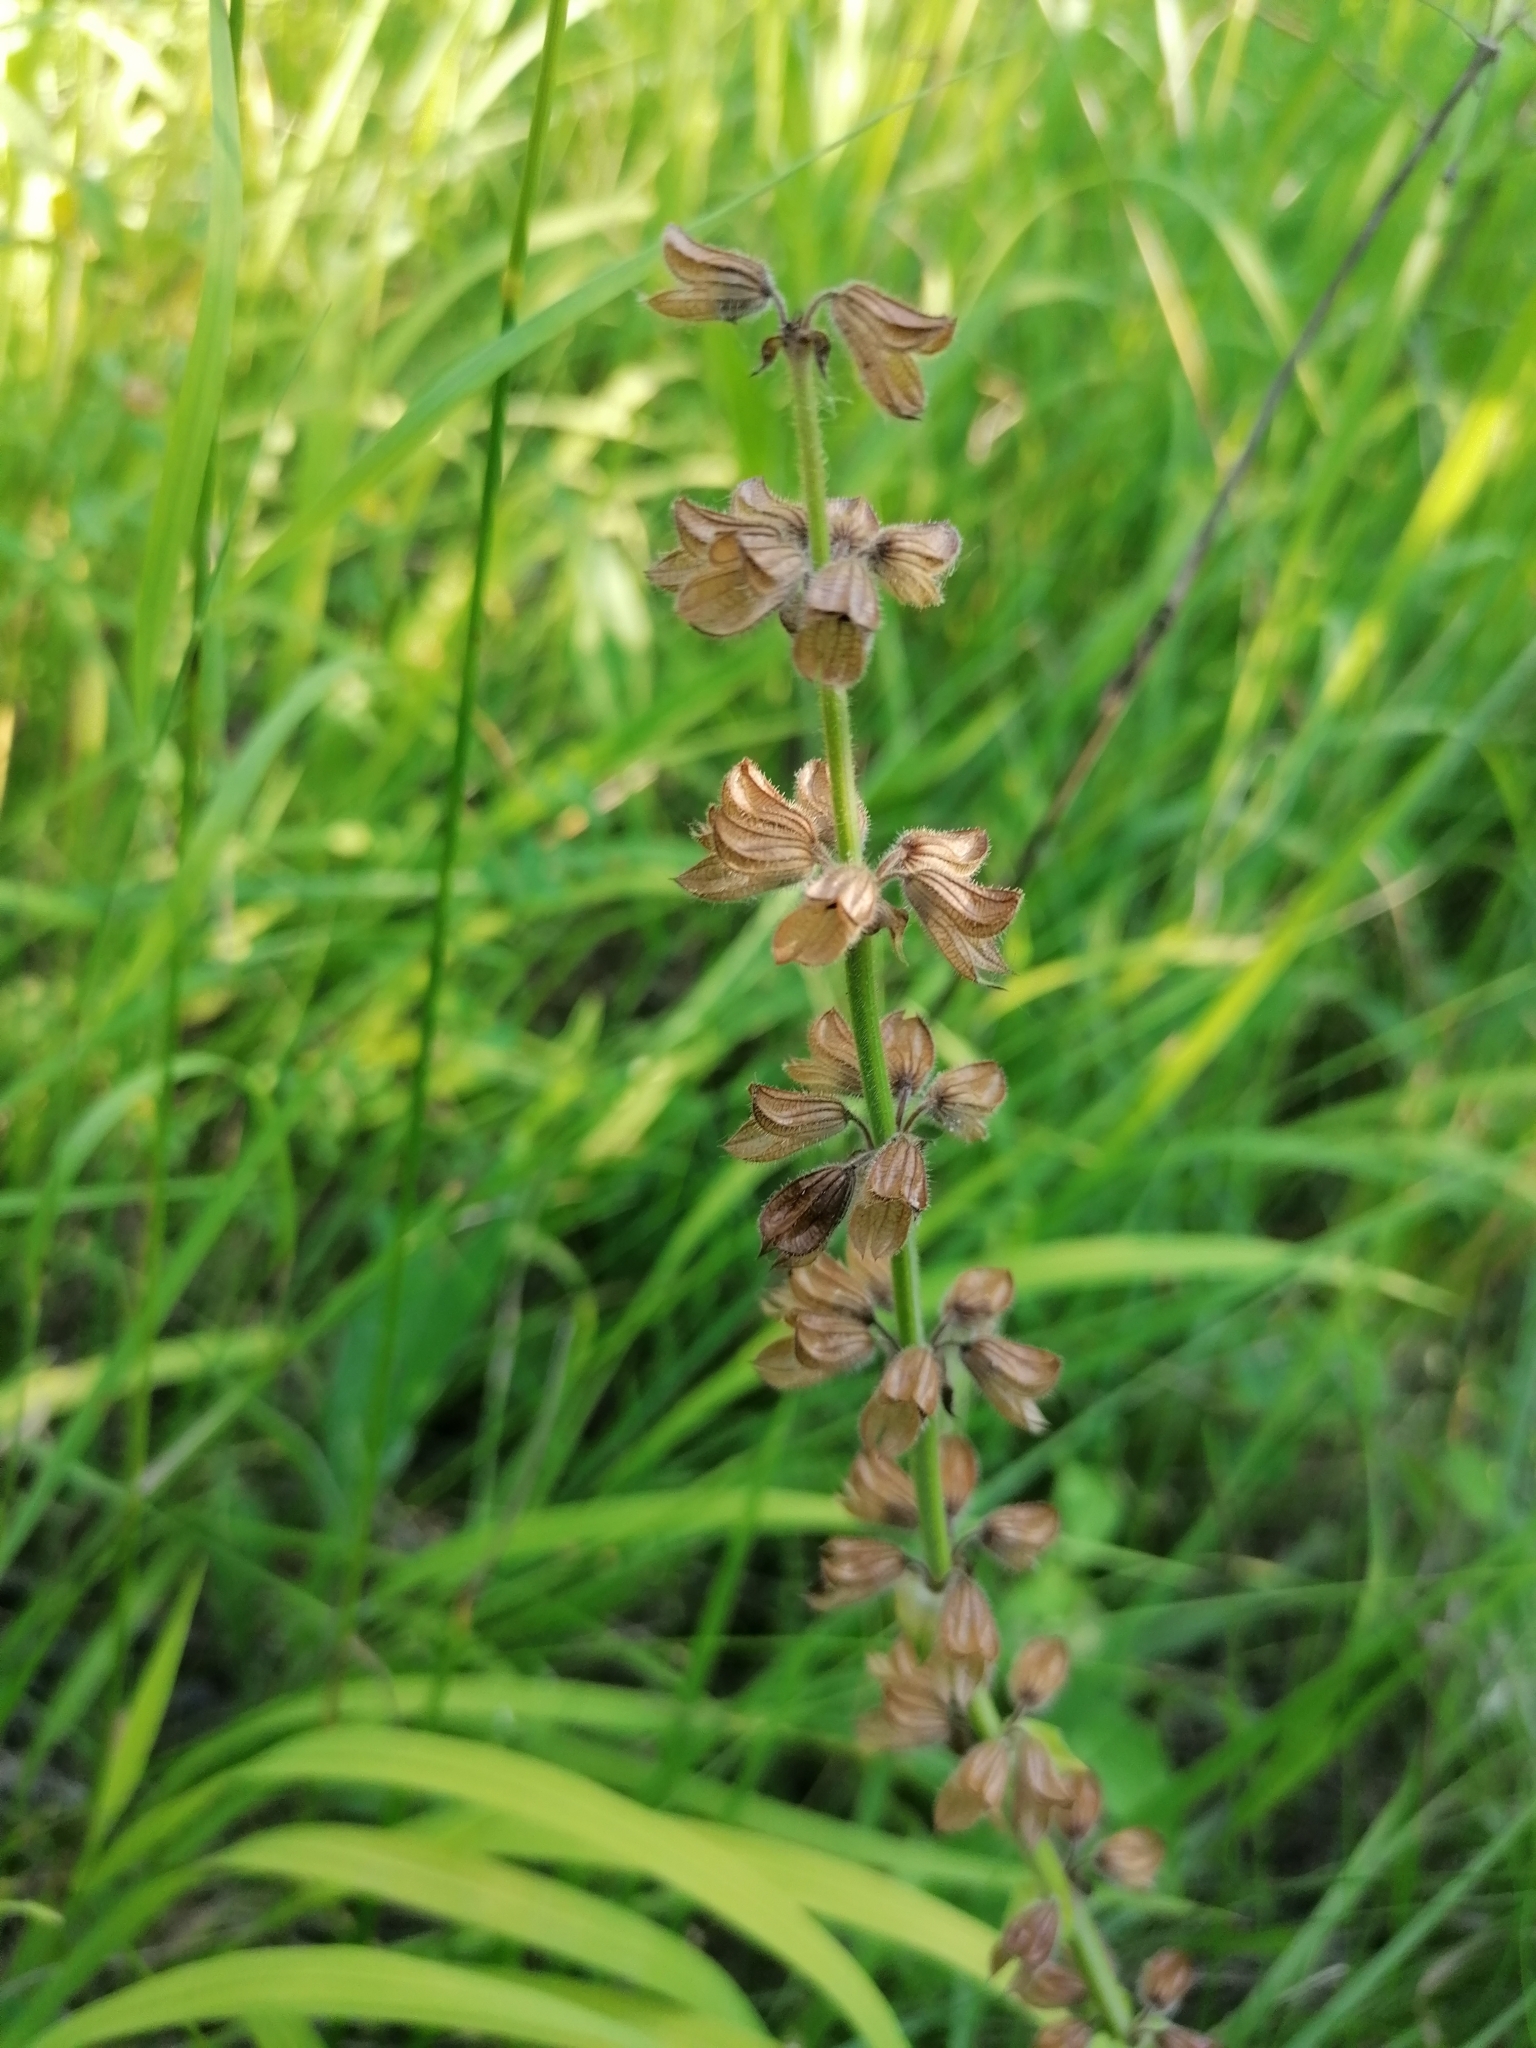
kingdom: Plantae
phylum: Tracheophyta
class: Magnoliopsida
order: Lamiales
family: Lamiaceae
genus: Salvia
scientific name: Salvia pratensis
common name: Meadow sage
